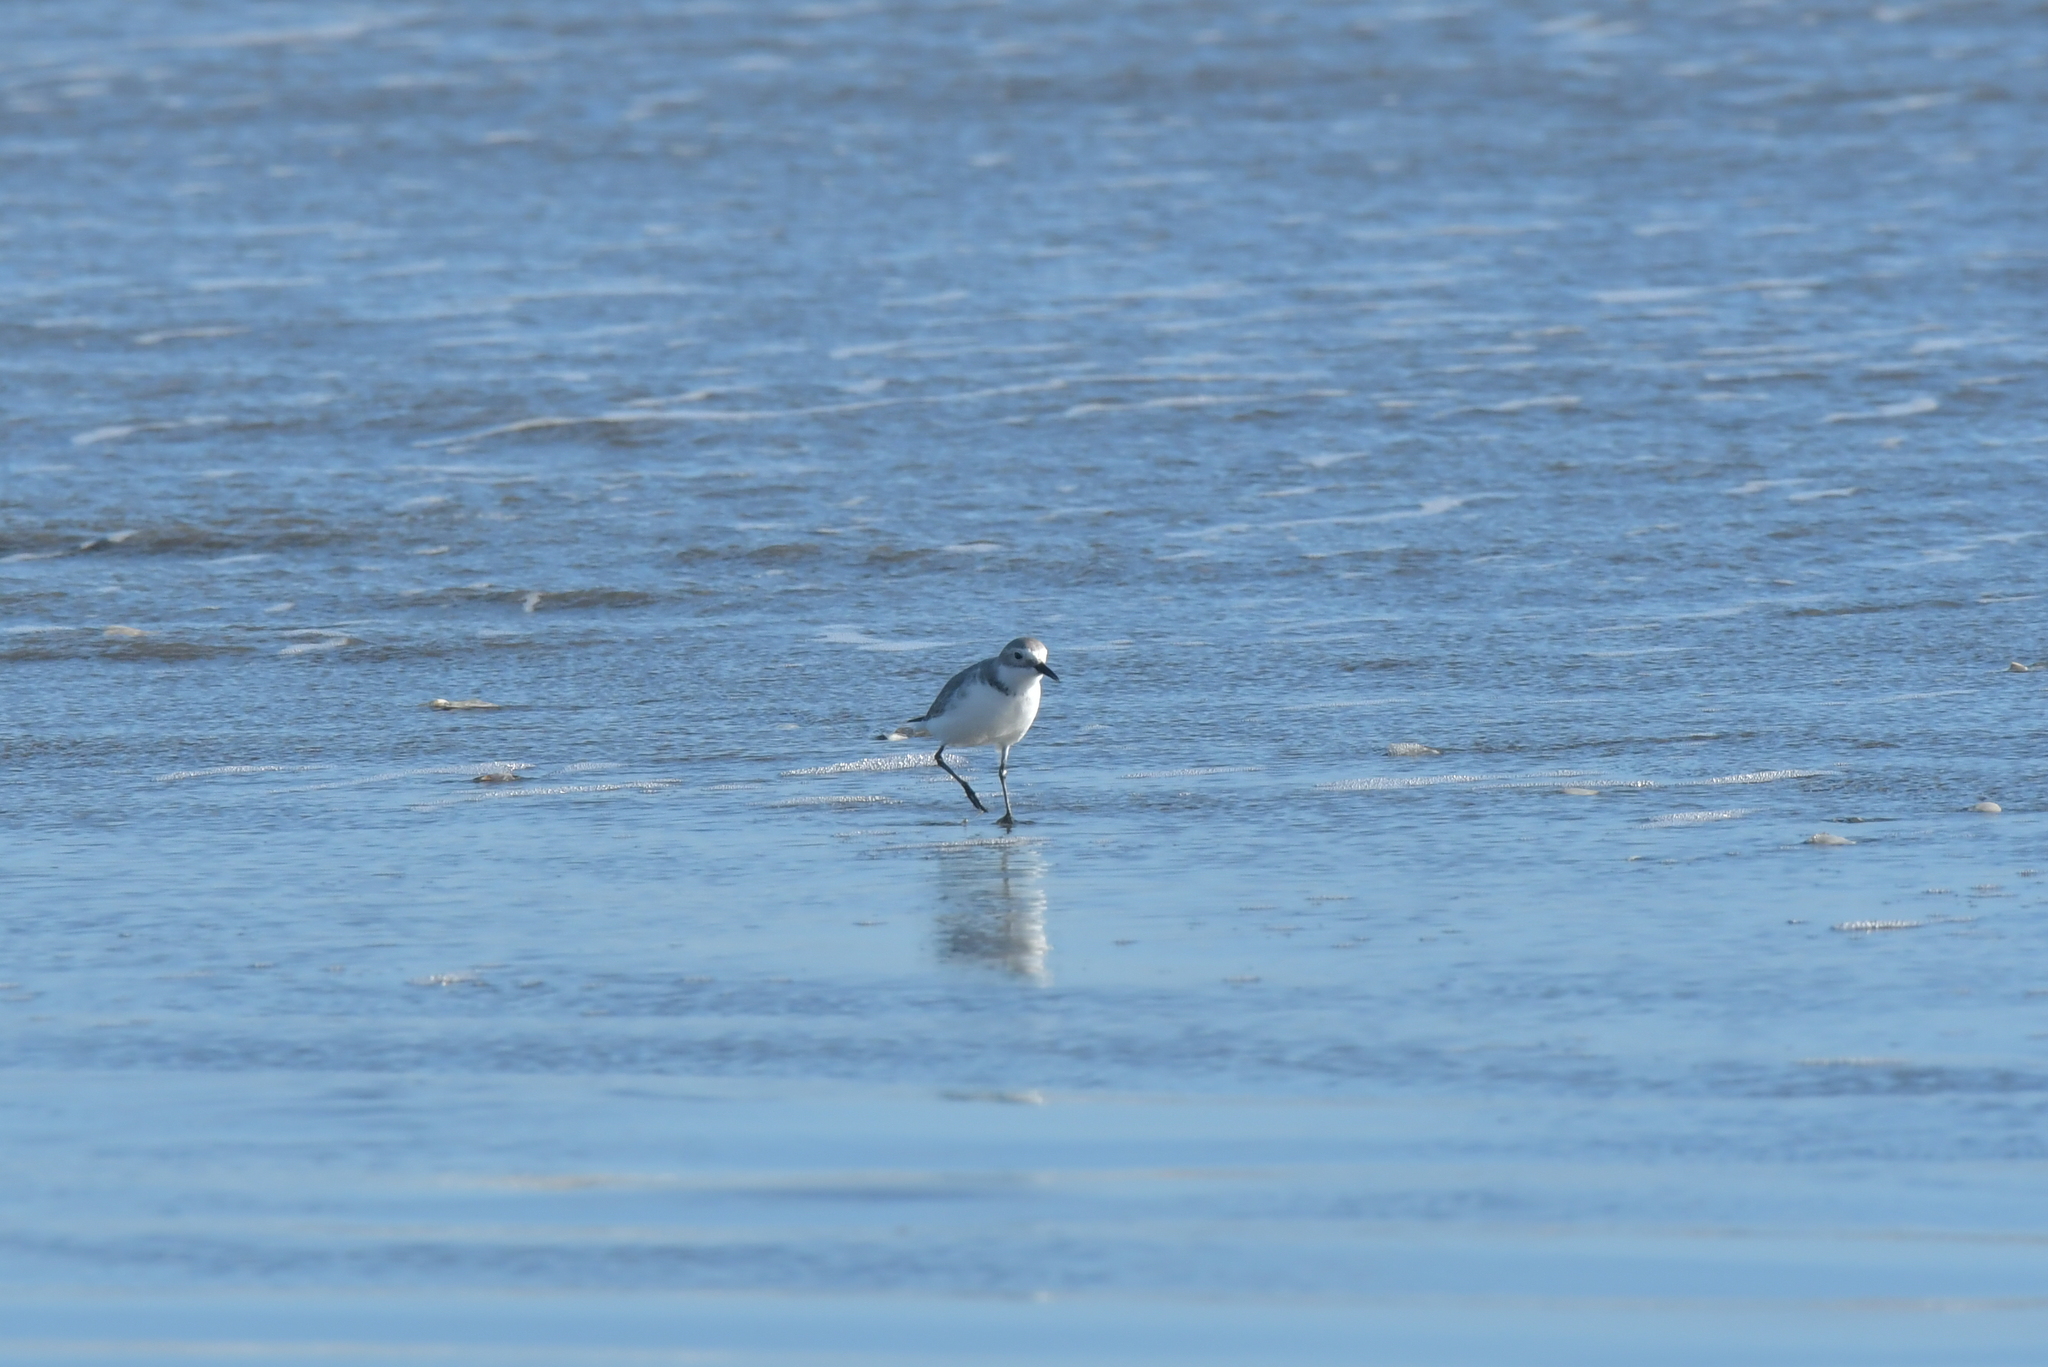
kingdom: Animalia
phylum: Chordata
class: Aves
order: Charadriiformes
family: Charadriidae
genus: Anarhynchus
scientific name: Anarhynchus frontalis
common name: Wrybill
